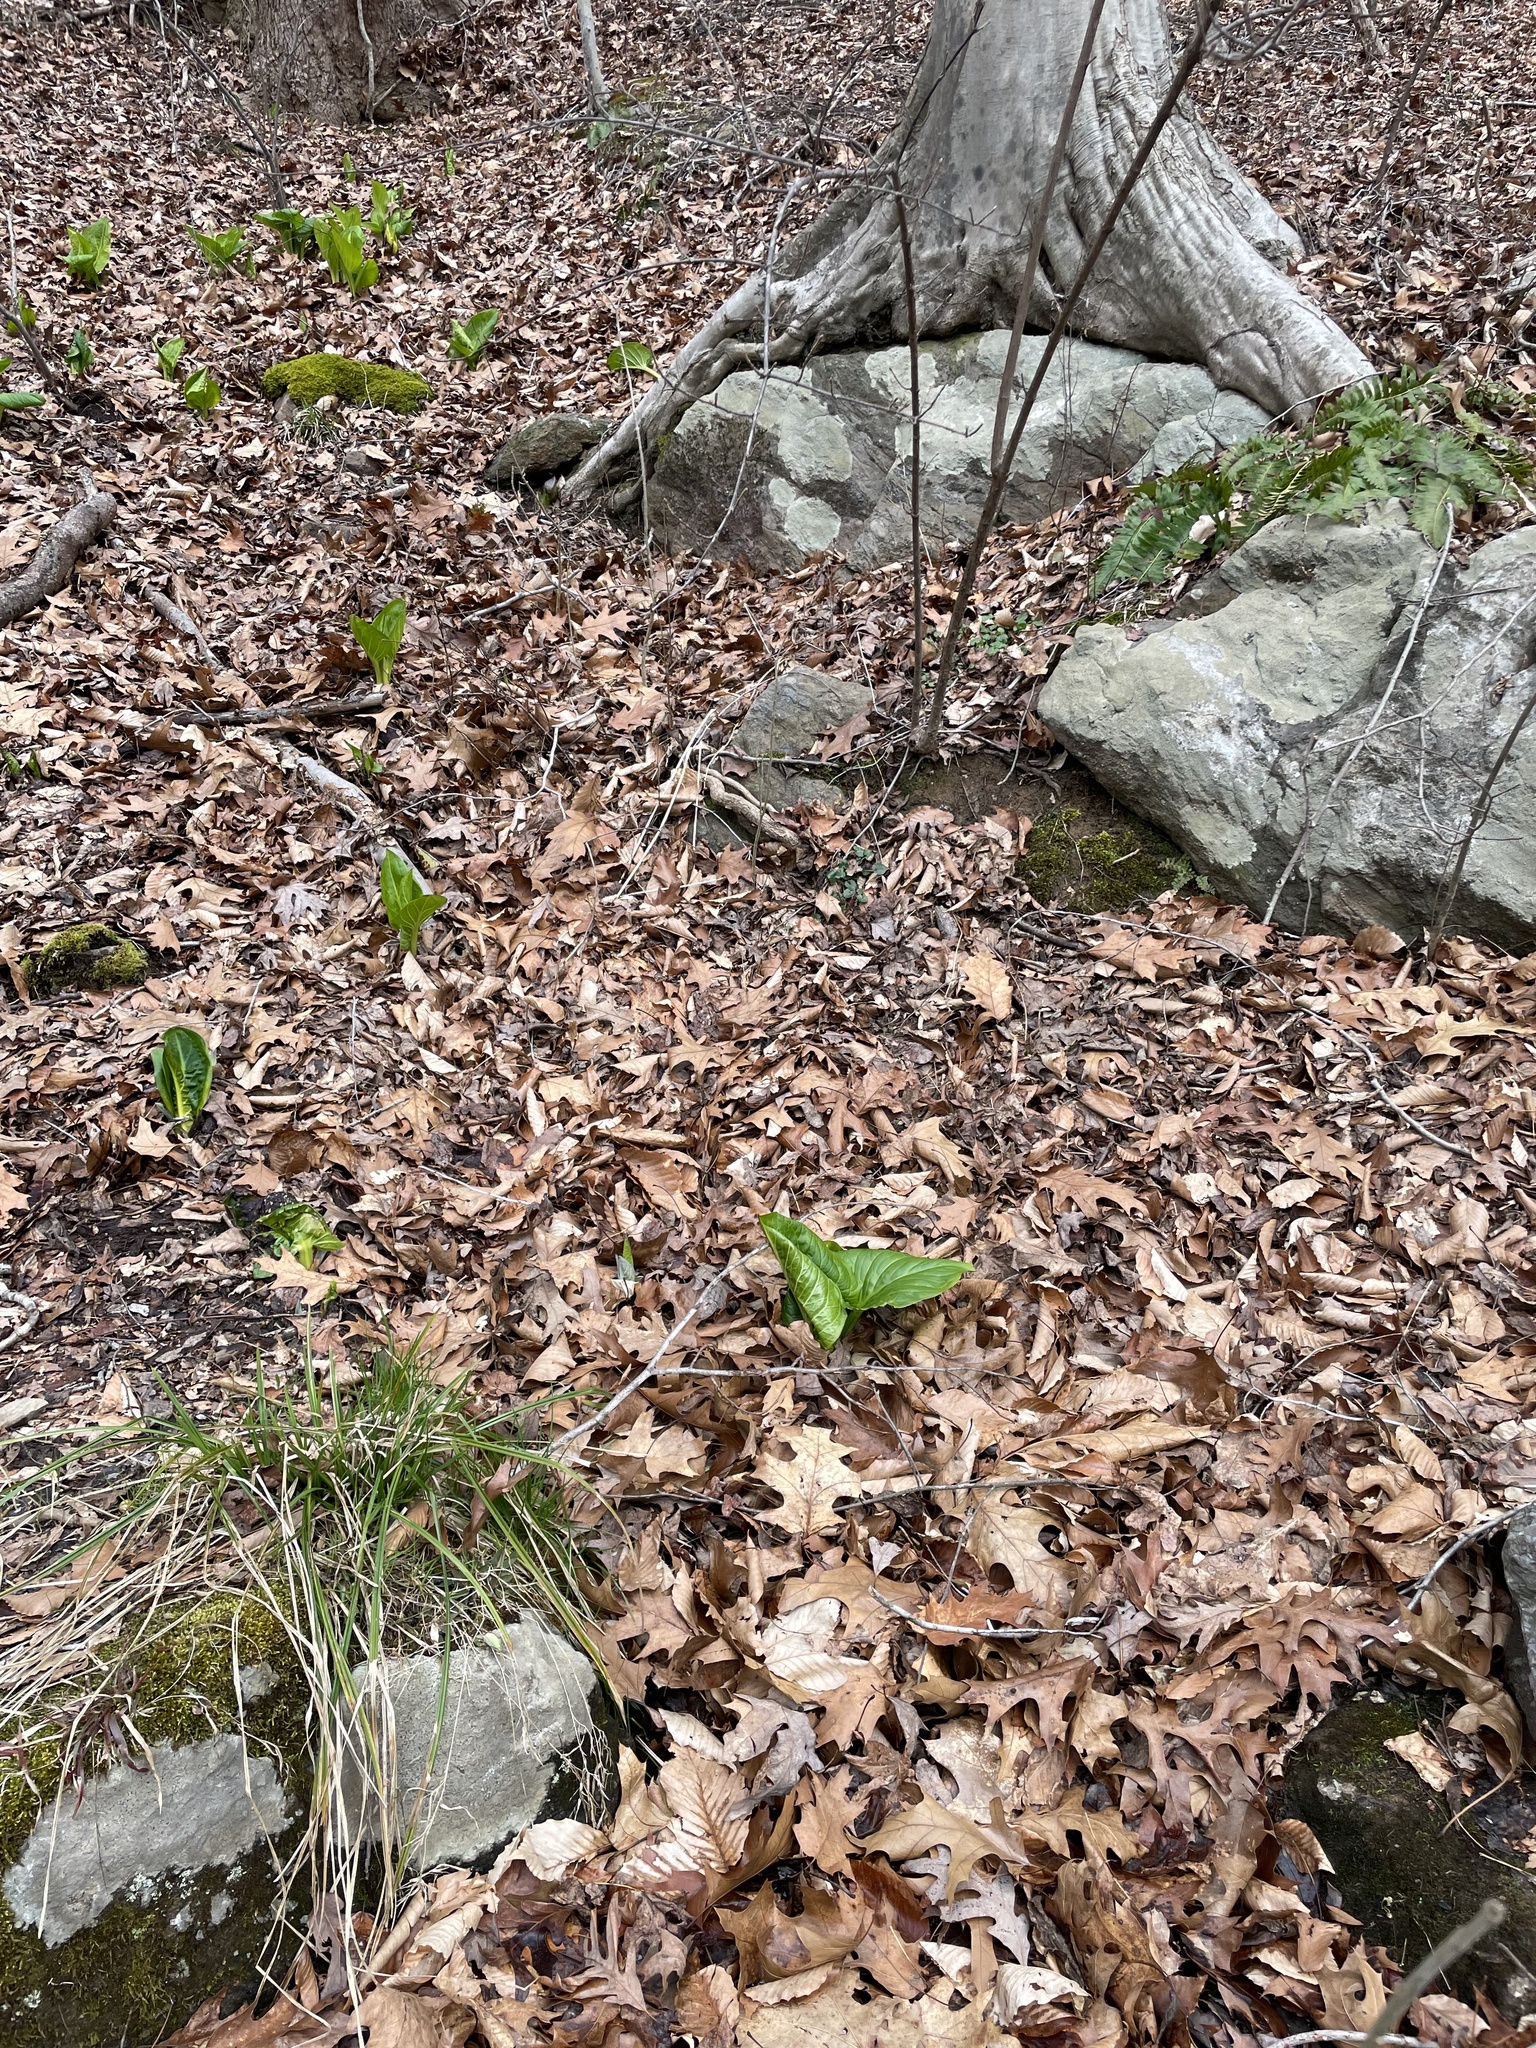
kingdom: Plantae
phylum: Tracheophyta
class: Liliopsida
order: Alismatales
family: Araceae
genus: Symplocarpus
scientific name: Symplocarpus foetidus
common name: Eastern skunk cabbage
